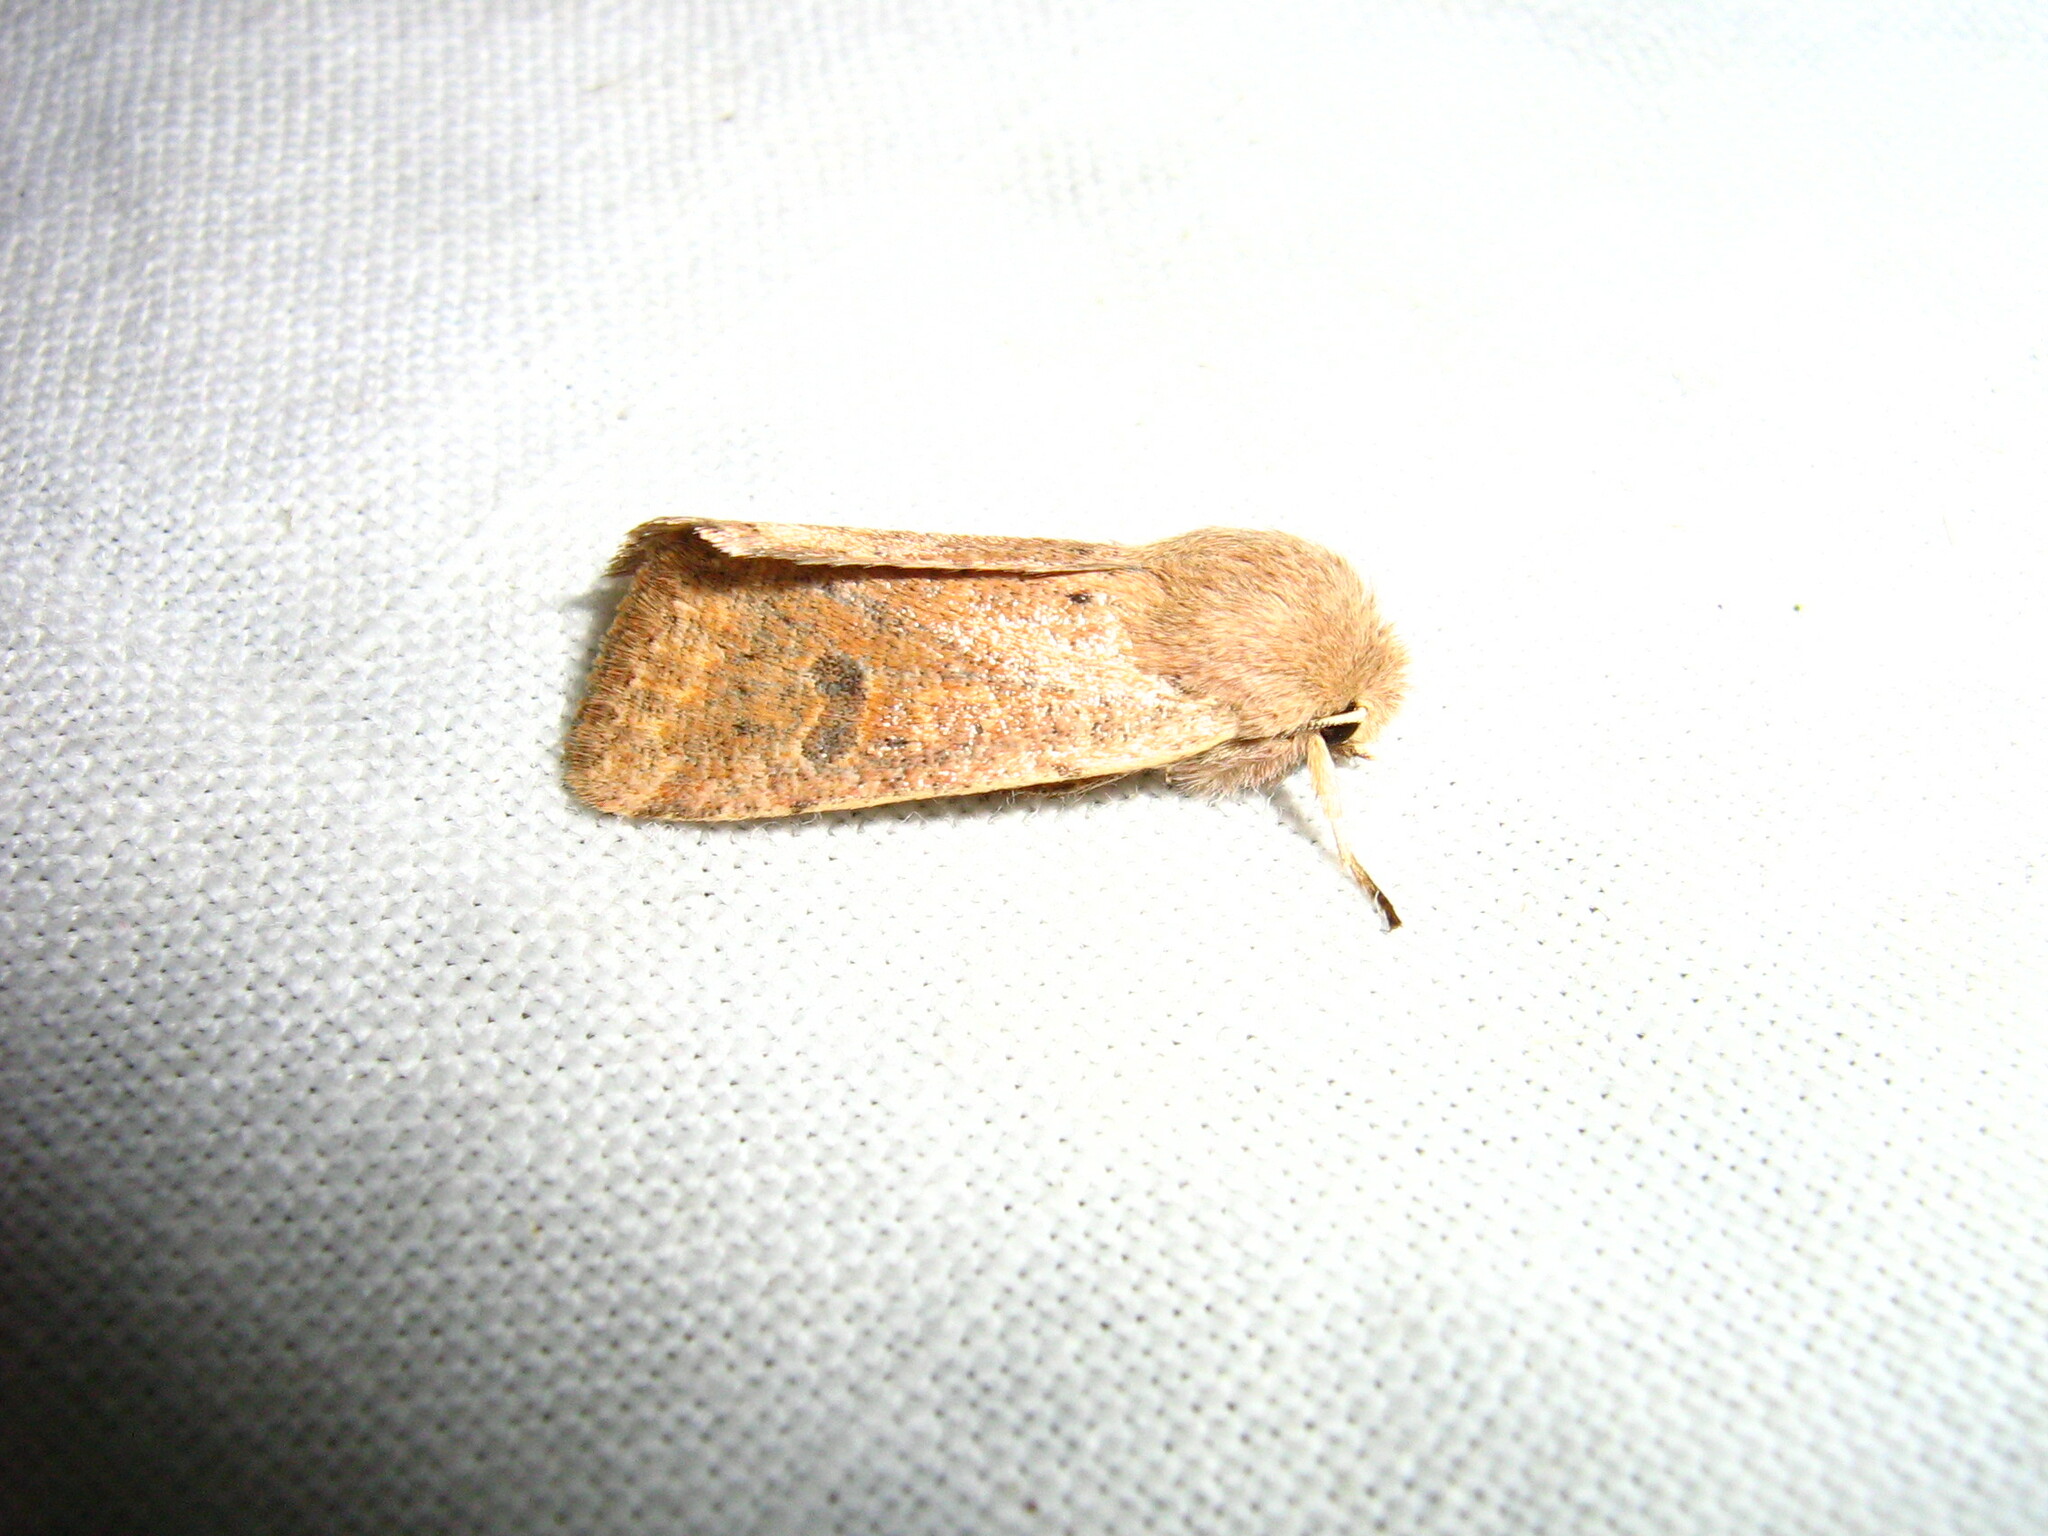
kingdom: Animalia
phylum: Arthropoda
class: Insecta
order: Lepidoptera
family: Noctuidae
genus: Orthosia
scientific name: Orthosia cruda
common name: Small quaker
